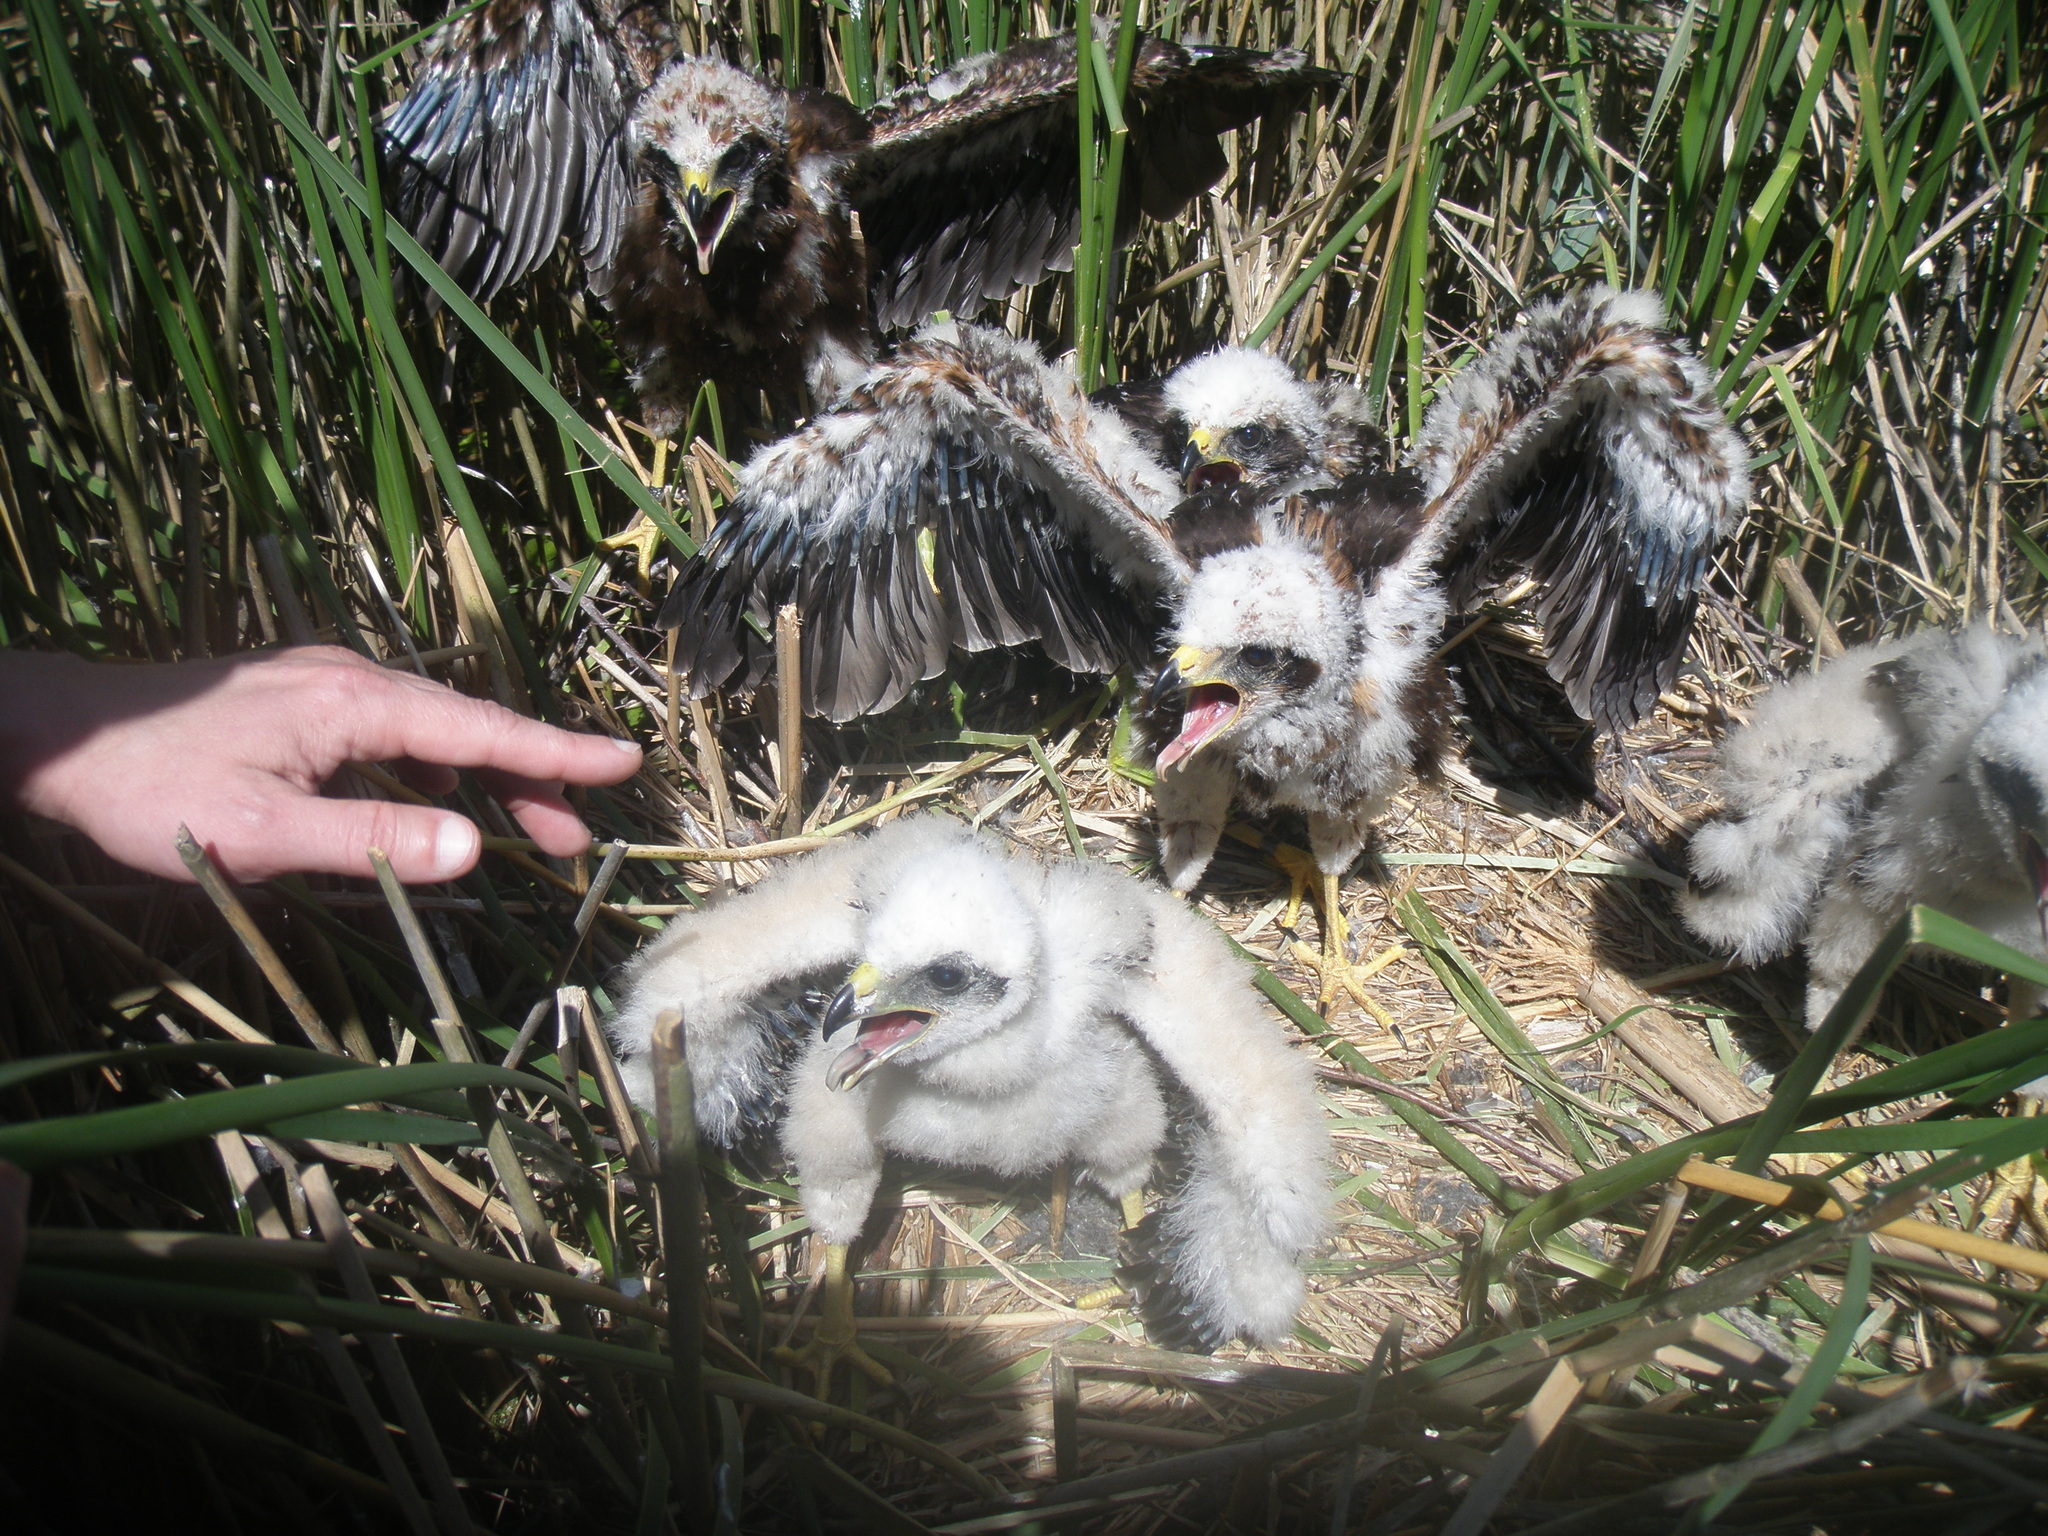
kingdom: Animalia
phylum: Chordata
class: Aves
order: Accipitriformes
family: Accipitridae
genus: Circus
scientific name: Circus aeruginosus
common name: Western marsh harrier
